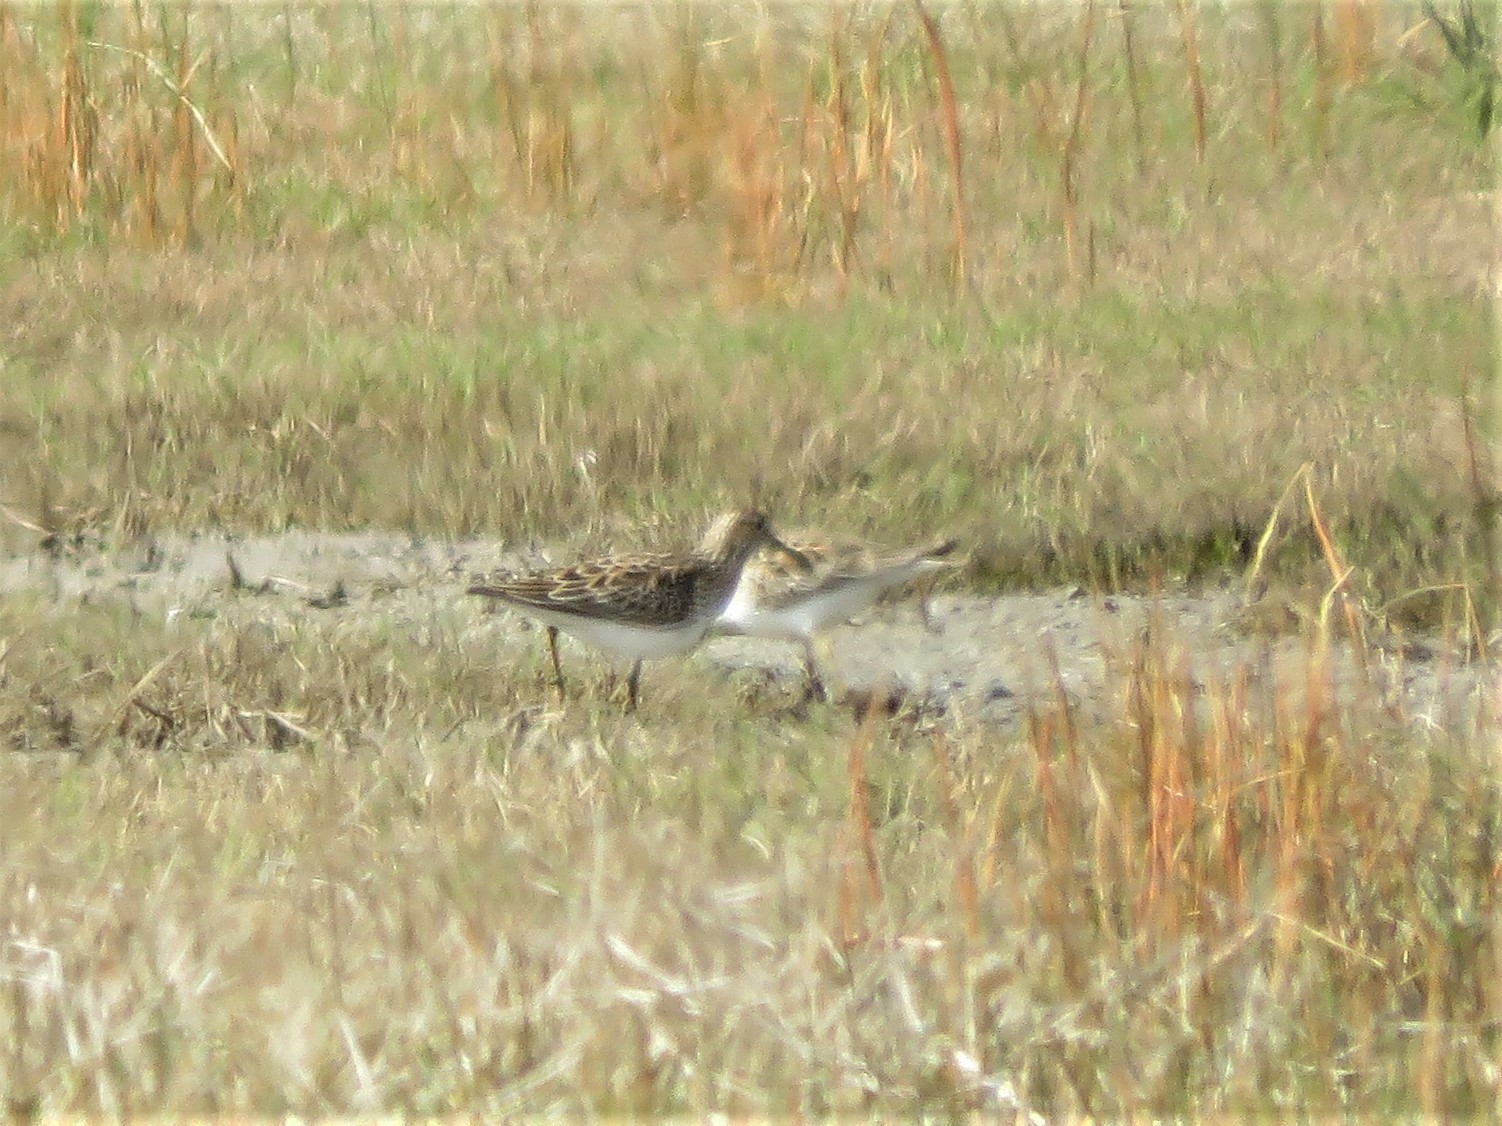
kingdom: Animalia
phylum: Chordata
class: Aves
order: Charadriiformes
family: Scolopacidae
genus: Calidris
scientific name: Calidris melanotos
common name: Pectoral sandpiper
